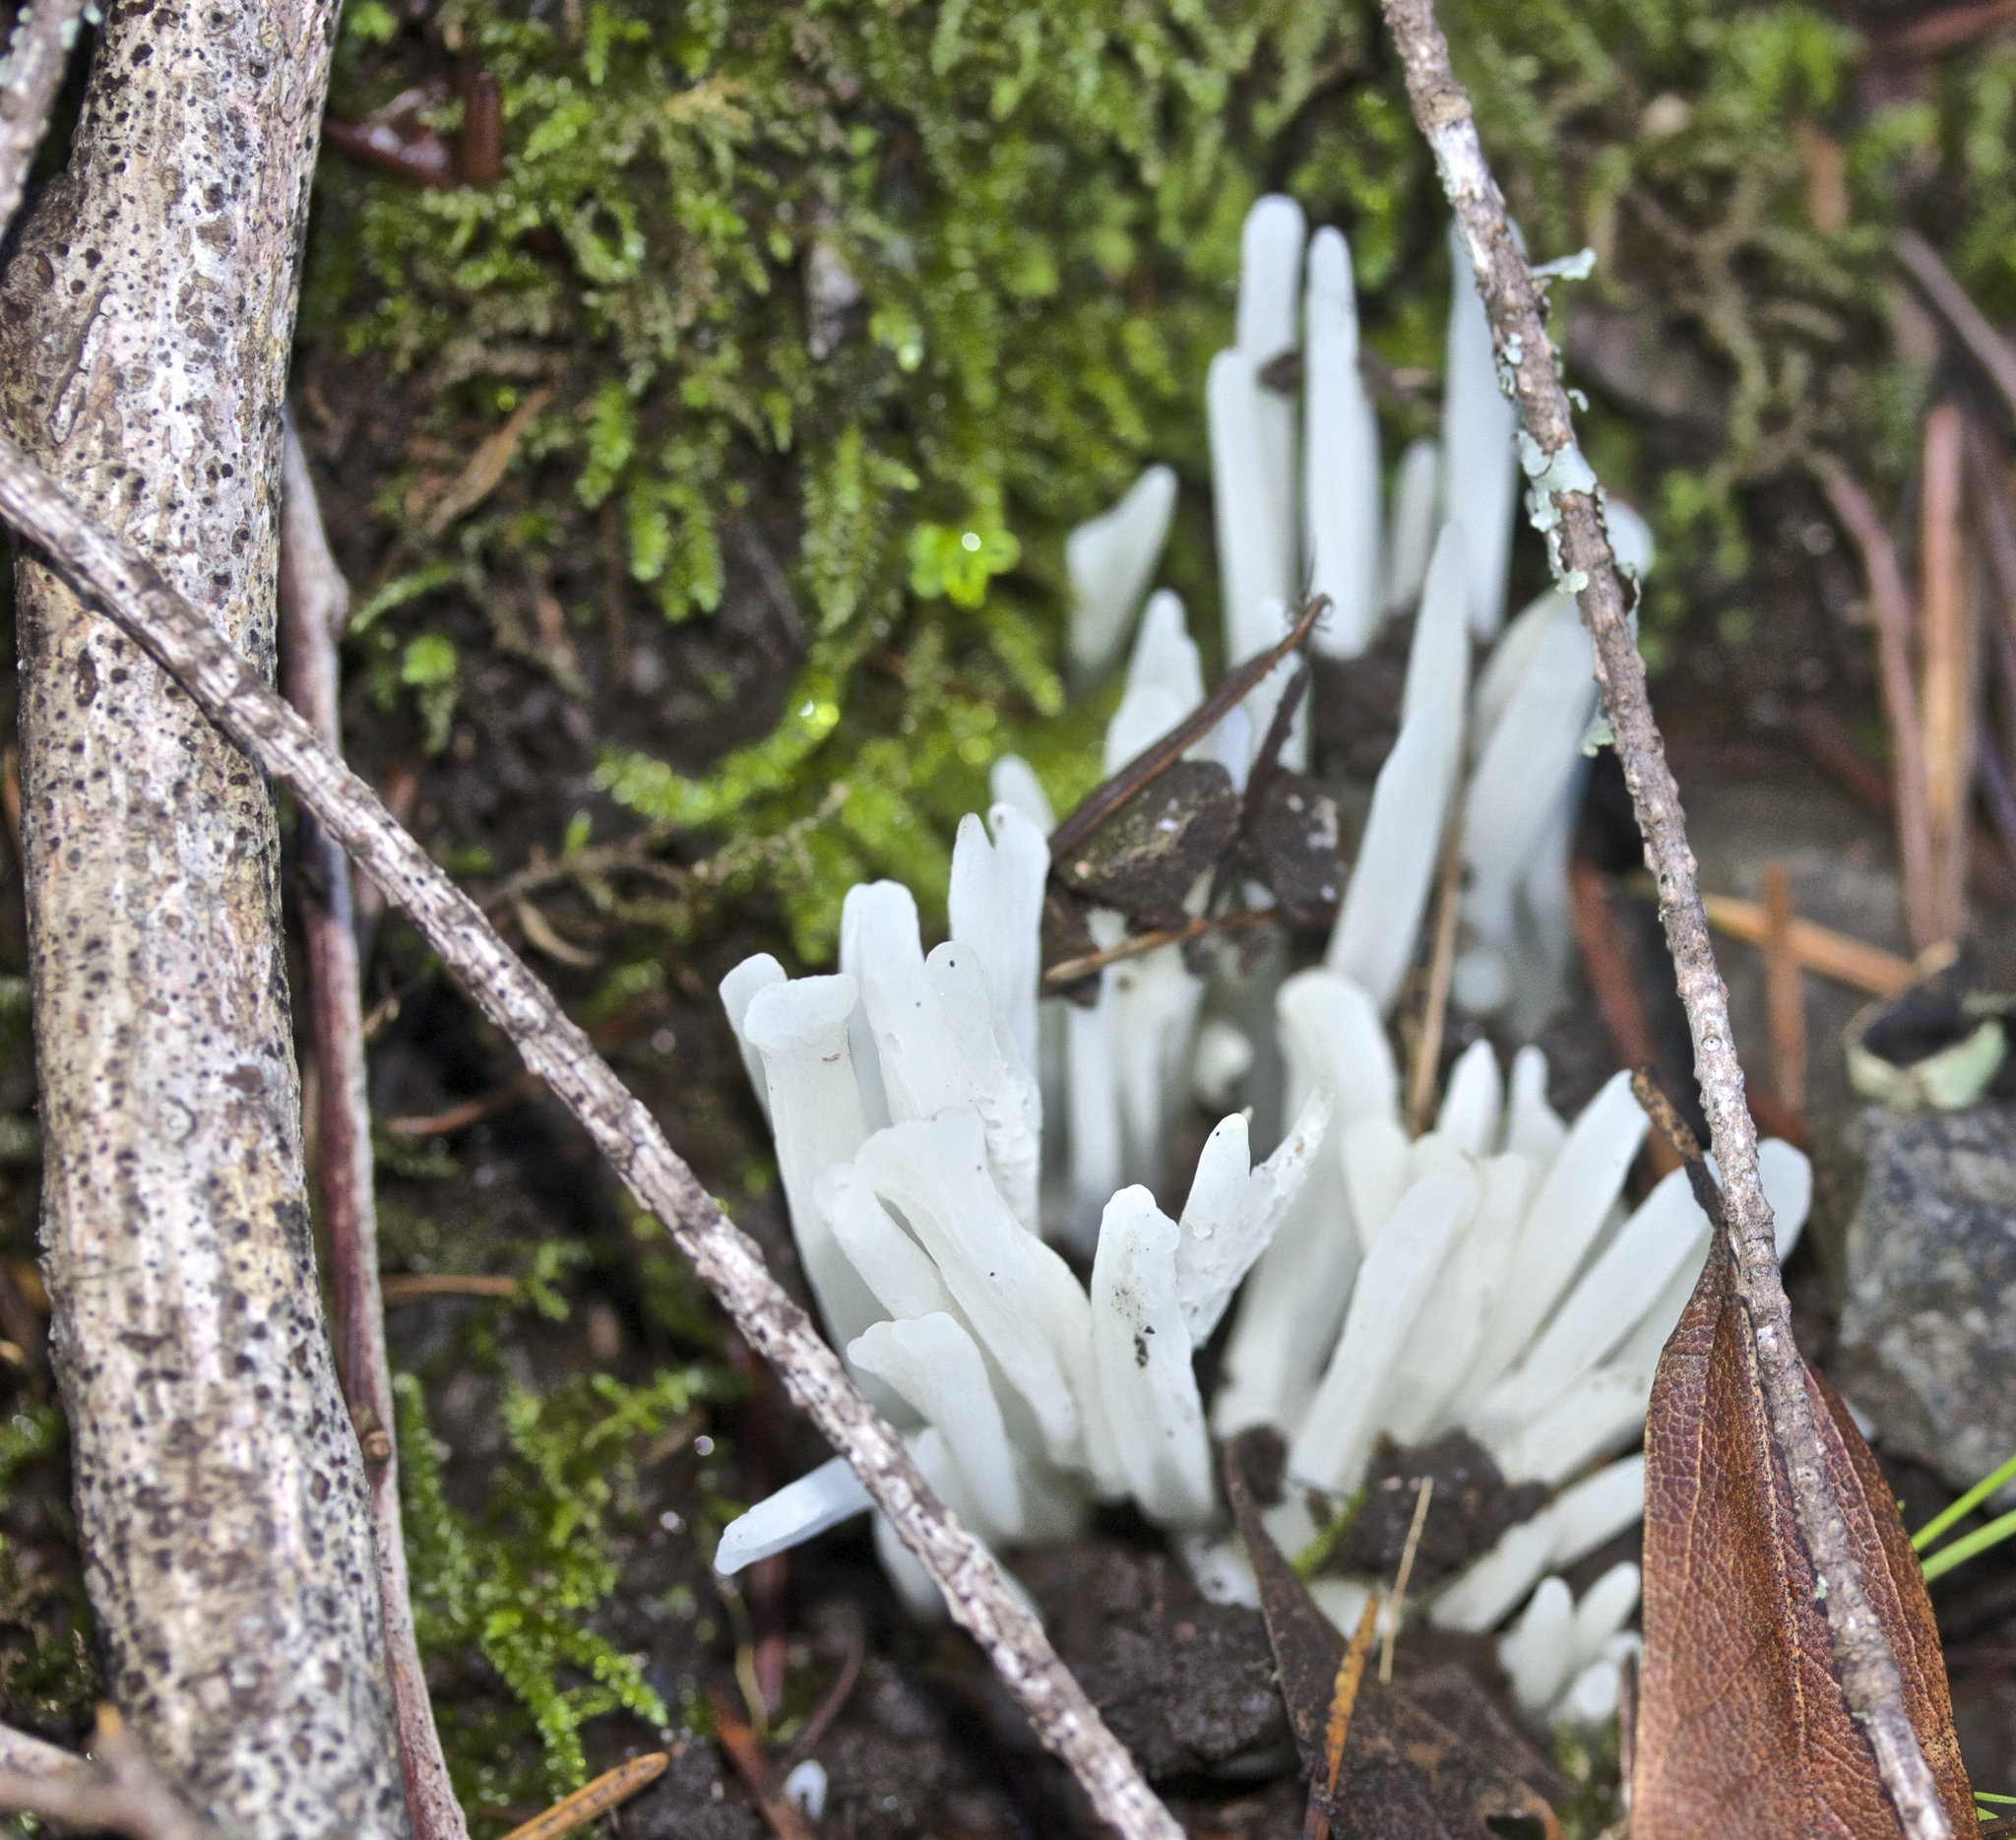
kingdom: Fungi
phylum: Basidiomycota
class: Agaricomycetes
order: Agaricales
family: Clavariaceae
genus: Clavaria
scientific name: Clavaria fragilis
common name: White spindles
